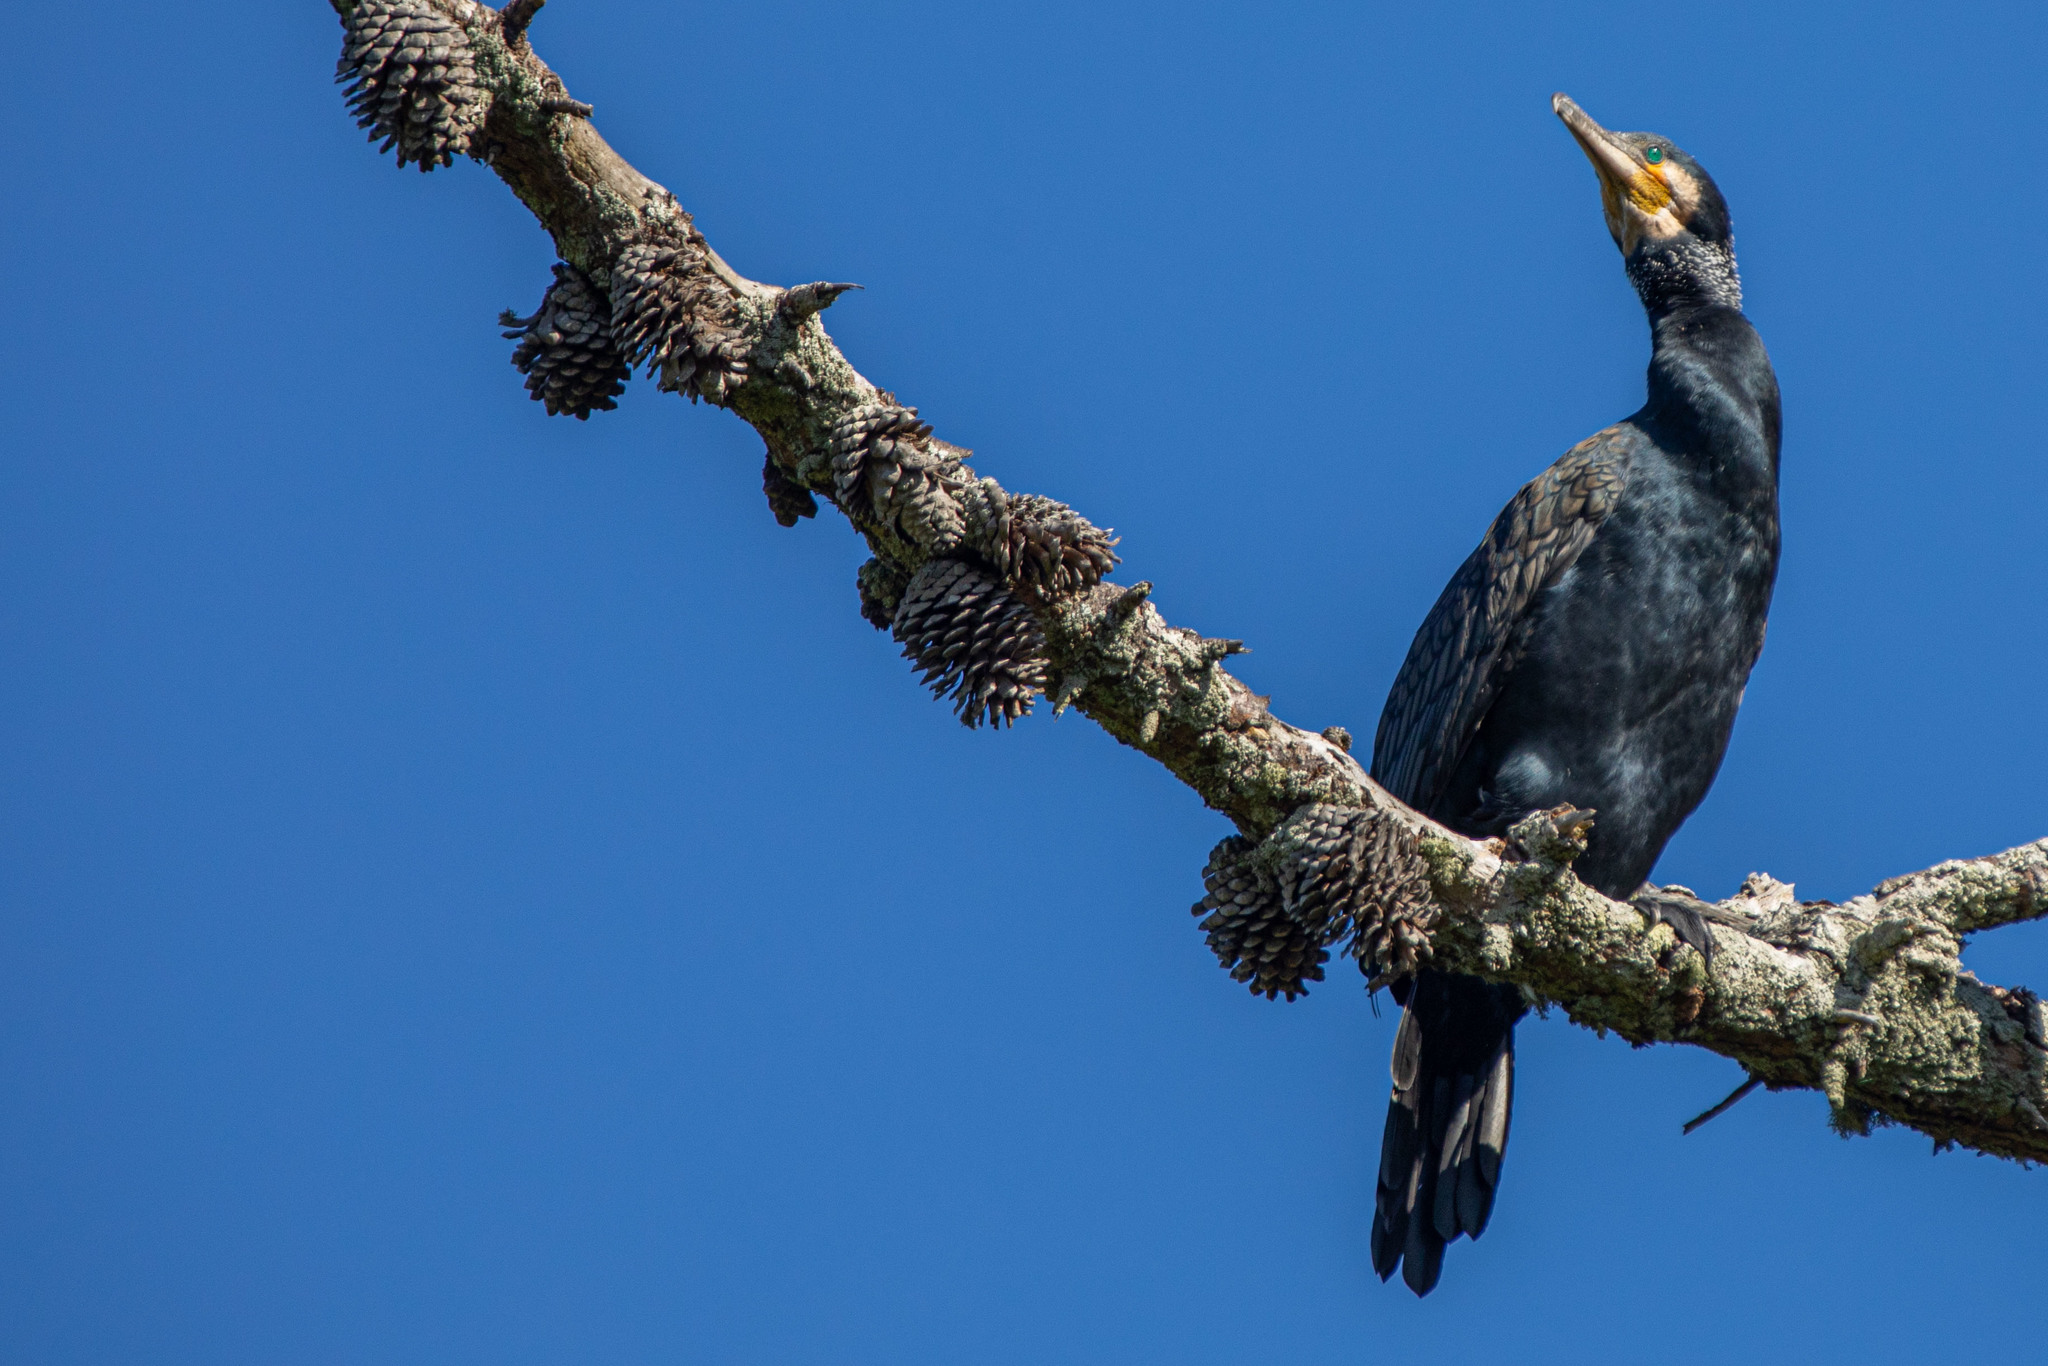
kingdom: Animalia
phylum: Chordata
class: Aves
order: Suliformes
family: Phalacrocoracidae
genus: Phalacrocorax
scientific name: Phalacrocorax carbo
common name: Great cormorant
